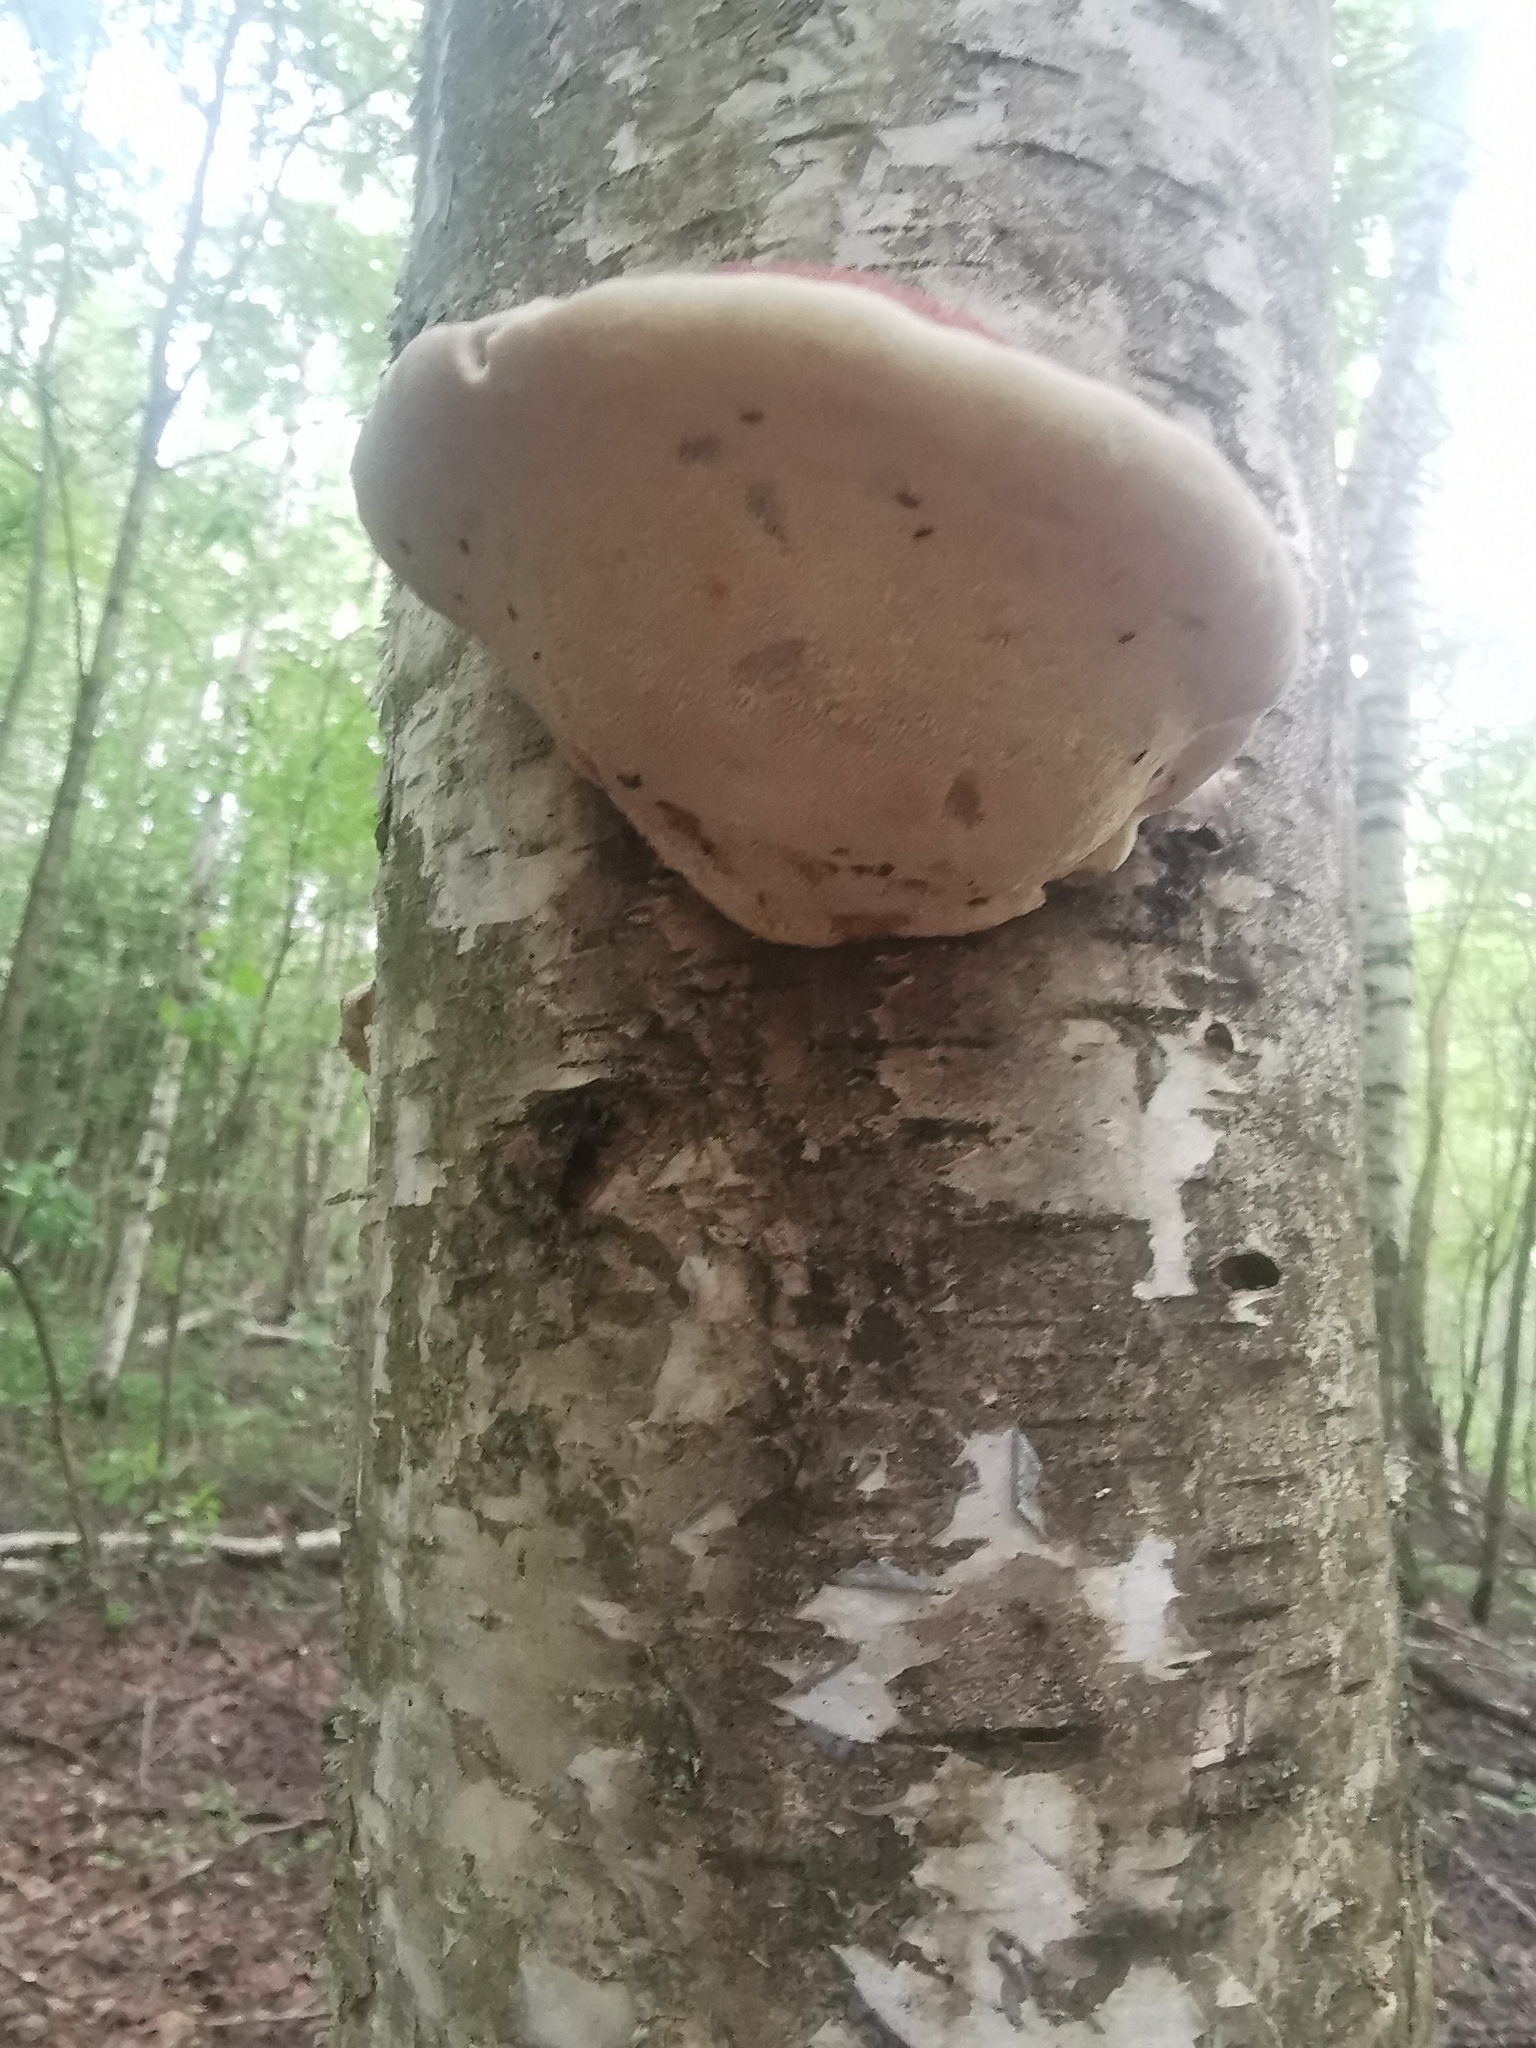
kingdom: Fungi
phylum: Basidiomycota
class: Agaricomycetes
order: Polyporales
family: Fomitopsidaceae
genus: Fomitopsis
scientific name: Fomitopsis pinicola
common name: Red-belted bracket
